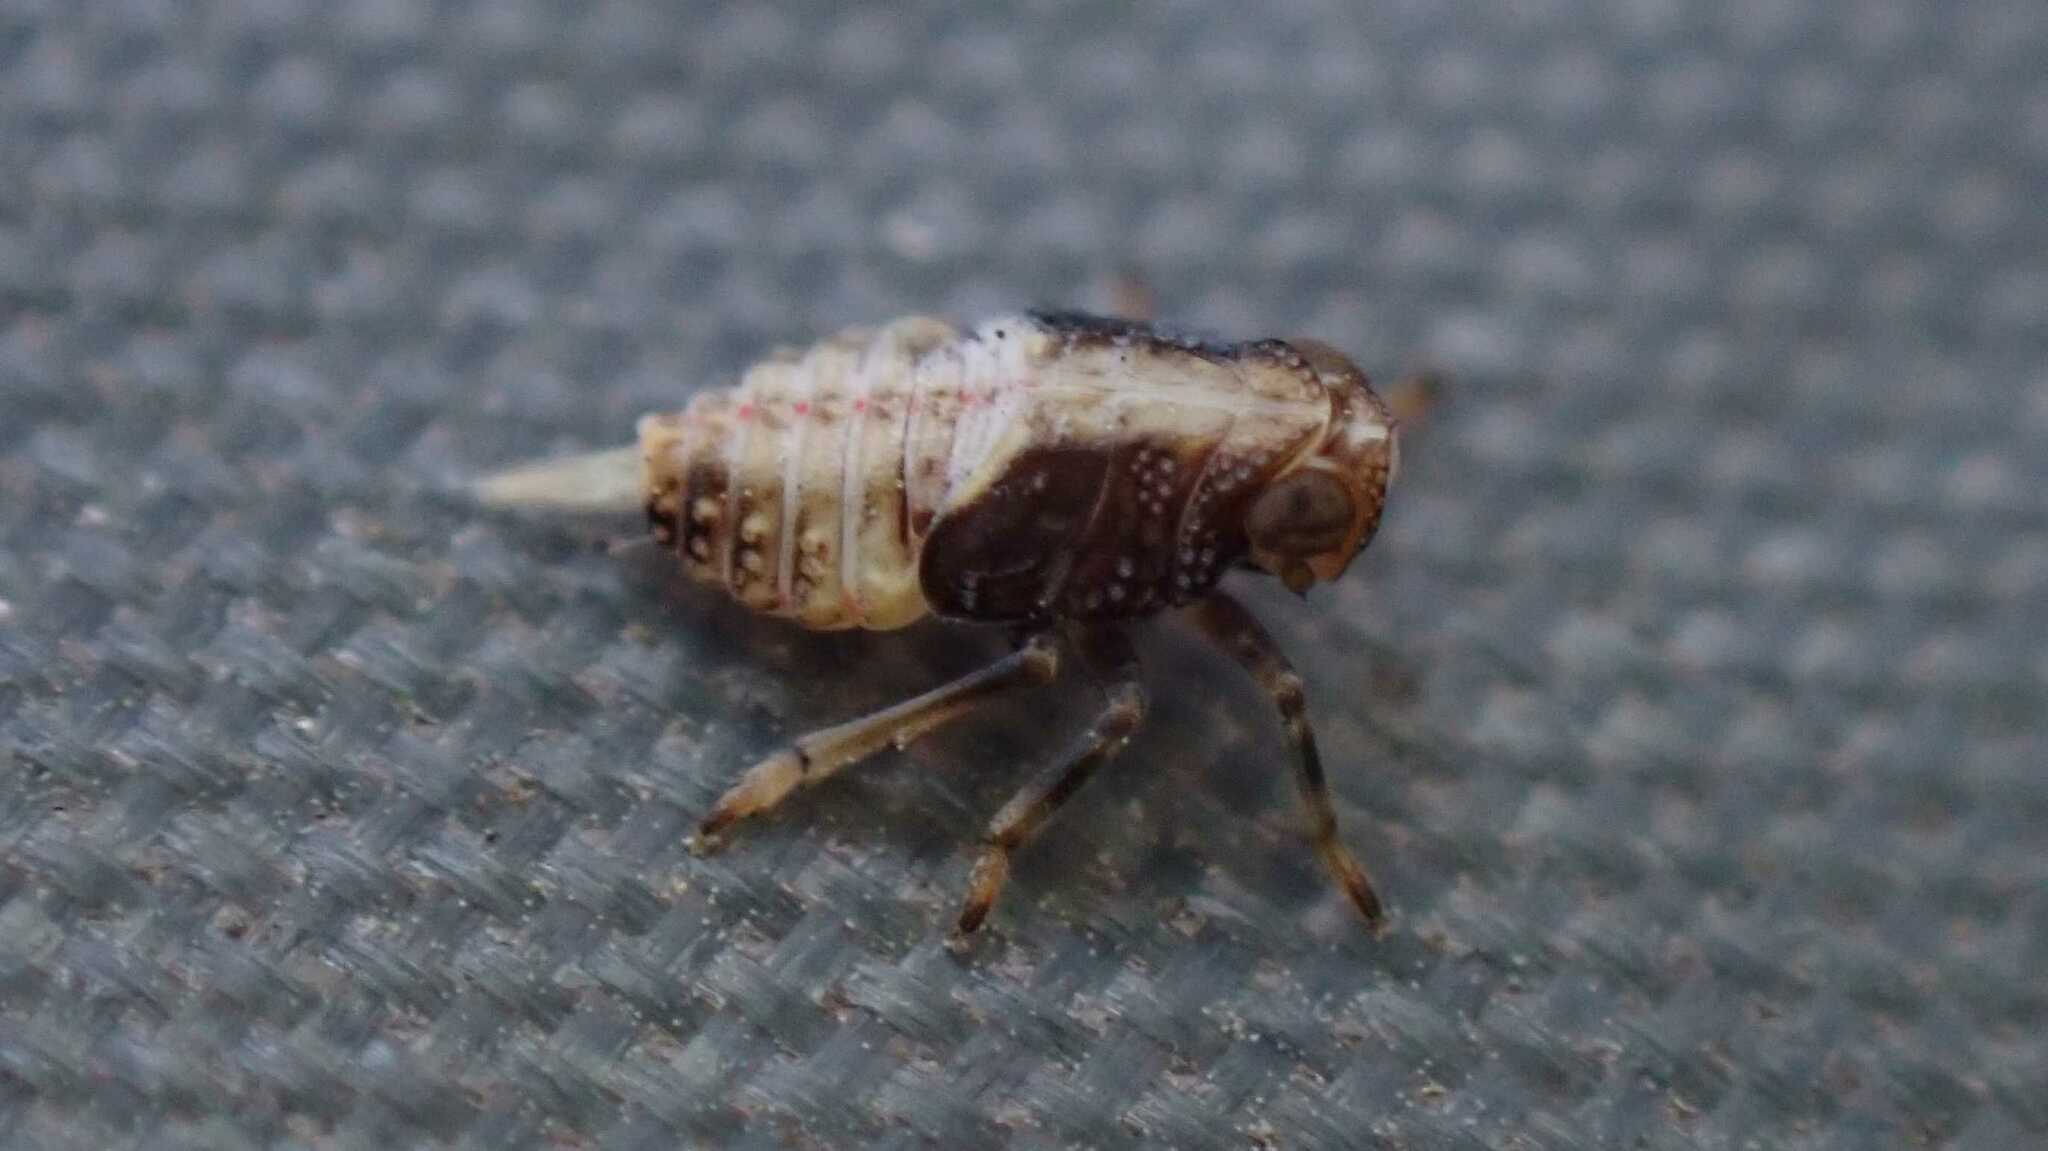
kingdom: Animalia
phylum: Arthropoda
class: Insecta
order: Hemiptera
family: Issidae
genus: Issus
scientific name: Issus
